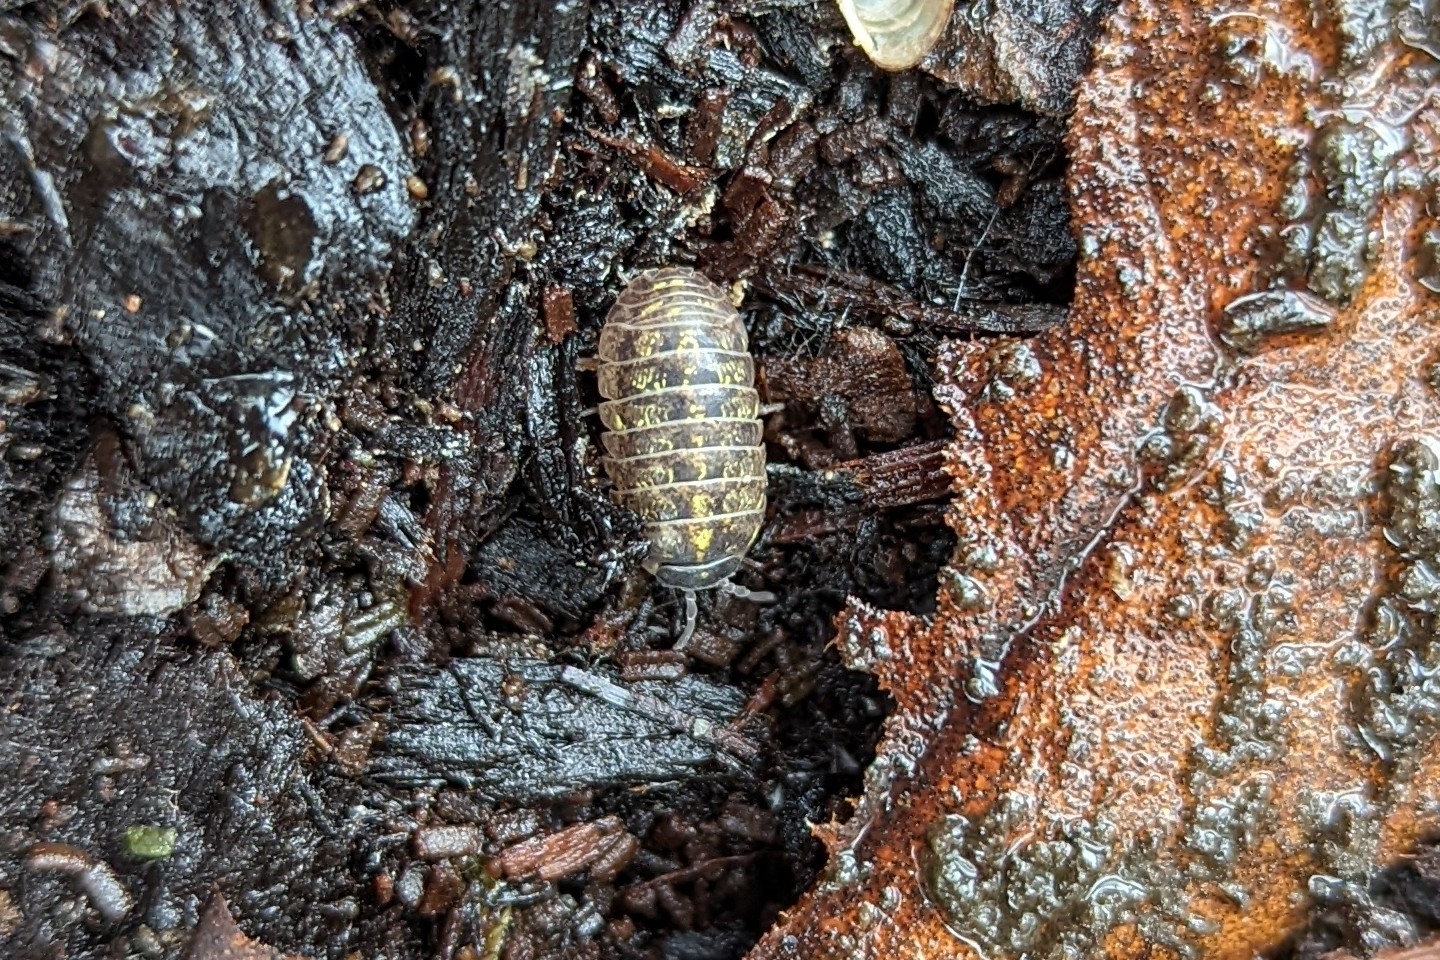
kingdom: Animalia
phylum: Arthropoda
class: Malacostraca
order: Isopoda
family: Armadillidiidae
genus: Armadillidium
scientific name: Armadillidium vulgare
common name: Common pill woodlouse
